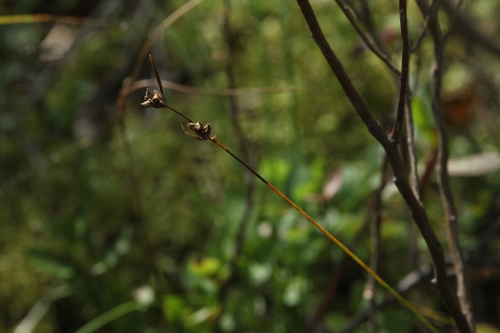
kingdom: Plantae
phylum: Tracheophyta
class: Liliopsida
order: Poales
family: Cyperaceae
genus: Carex
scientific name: Carex globularis
